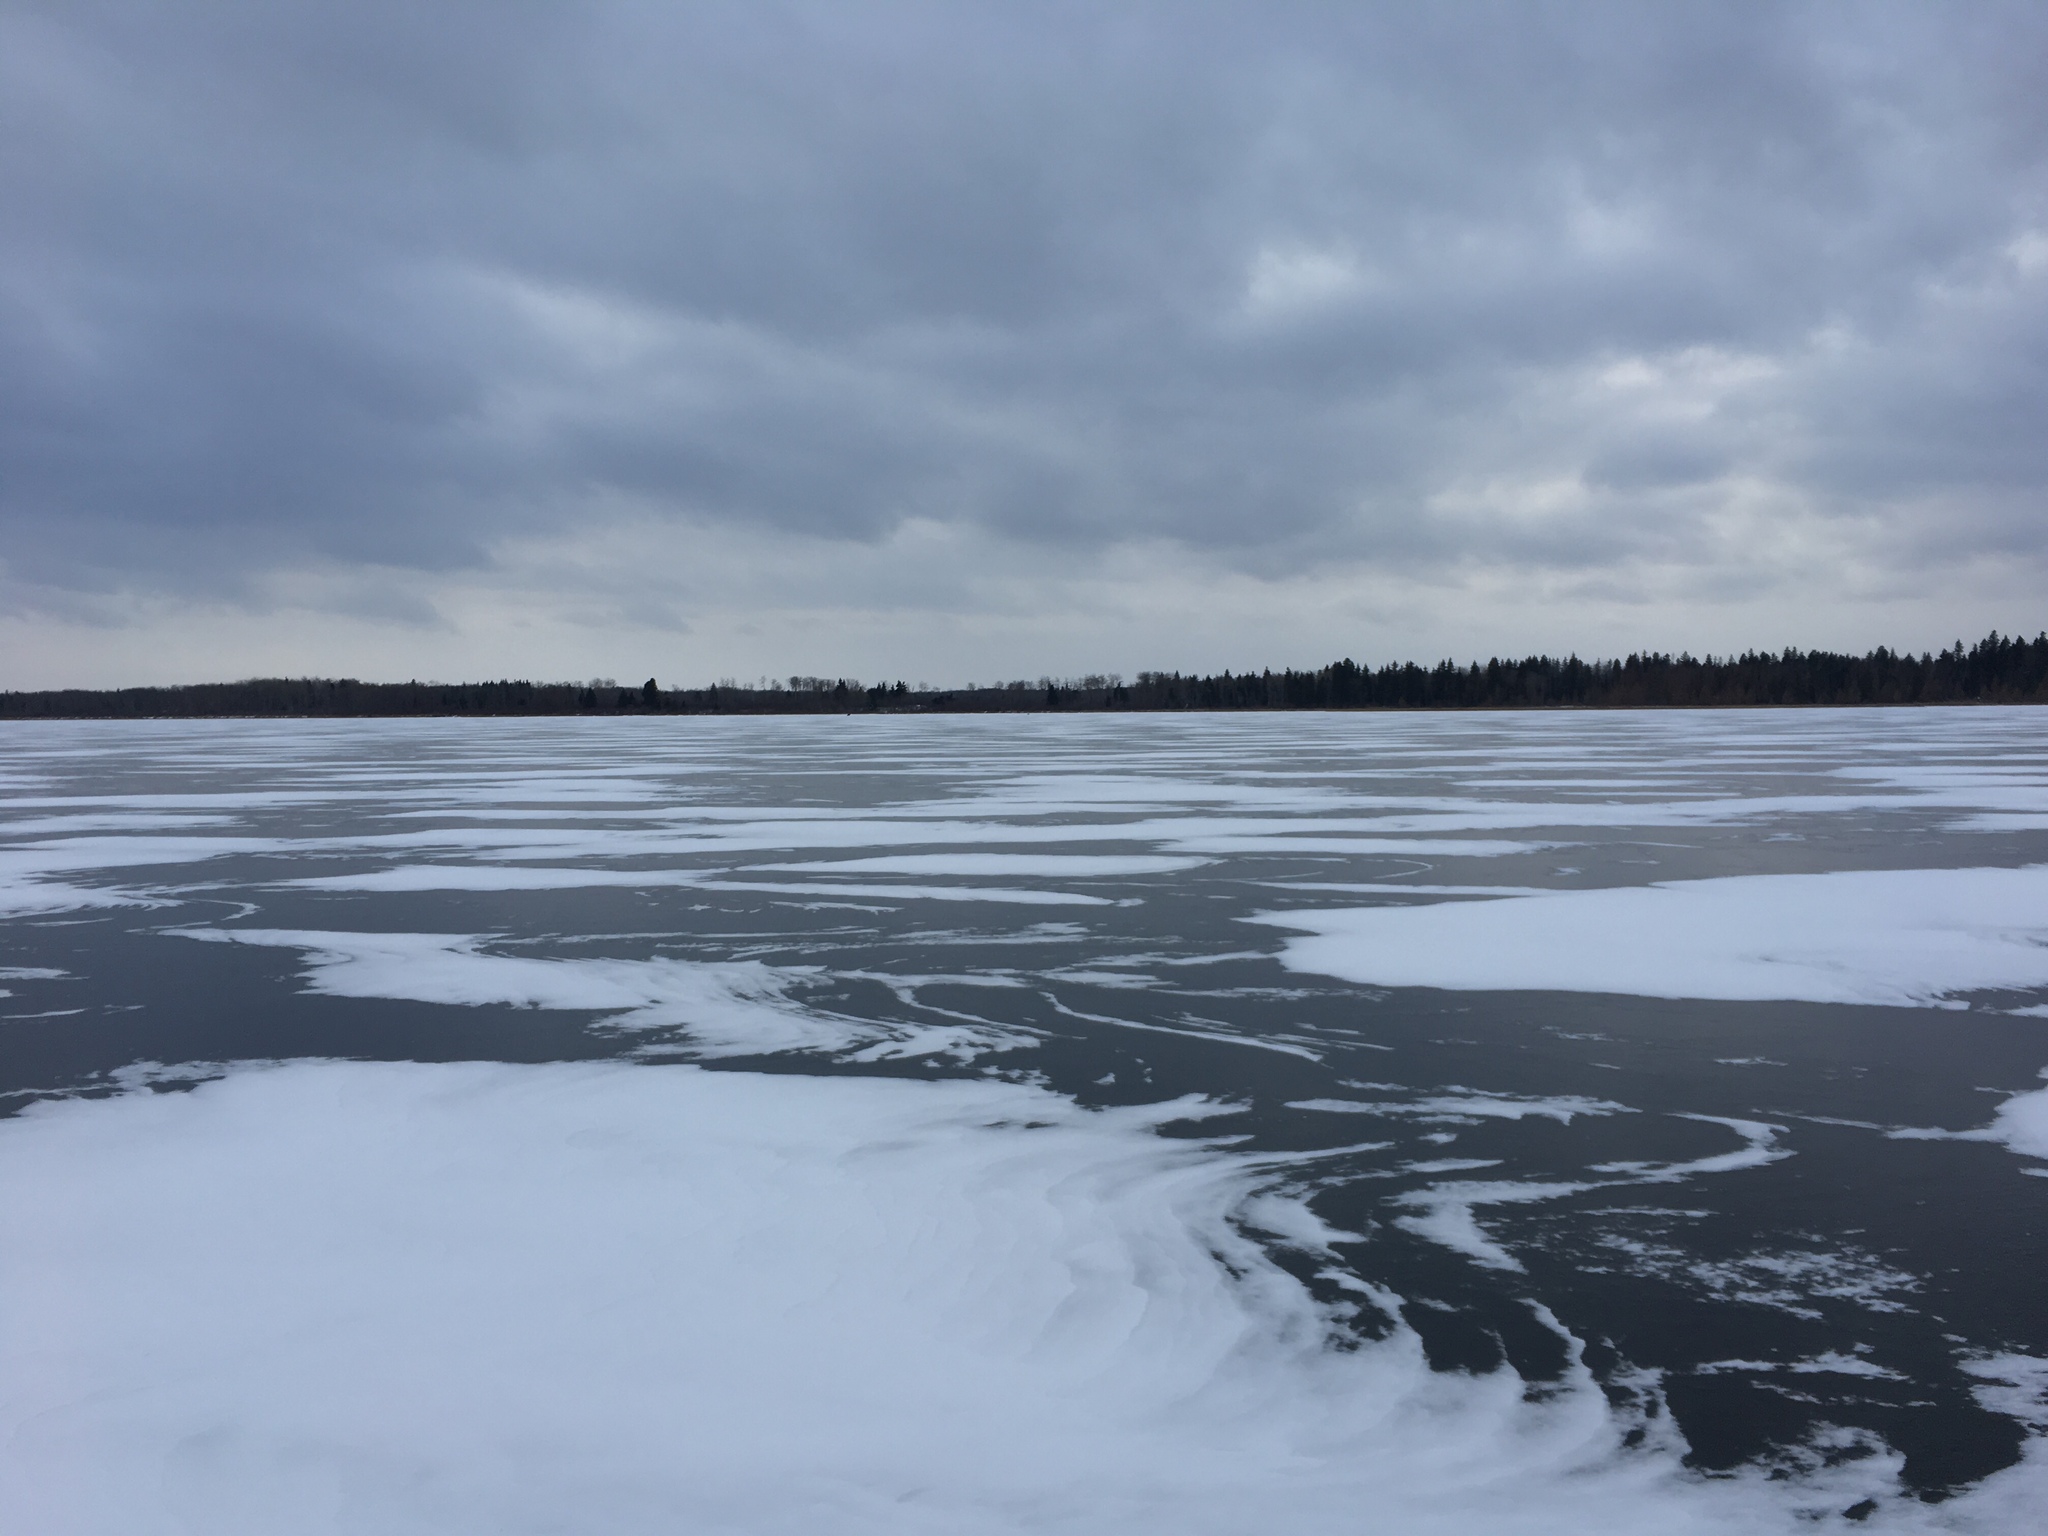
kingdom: Animalia
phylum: Chordata
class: Mammalia
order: Carnivora
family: Canidae
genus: Canis
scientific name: Canis lupus
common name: Gray wolf
